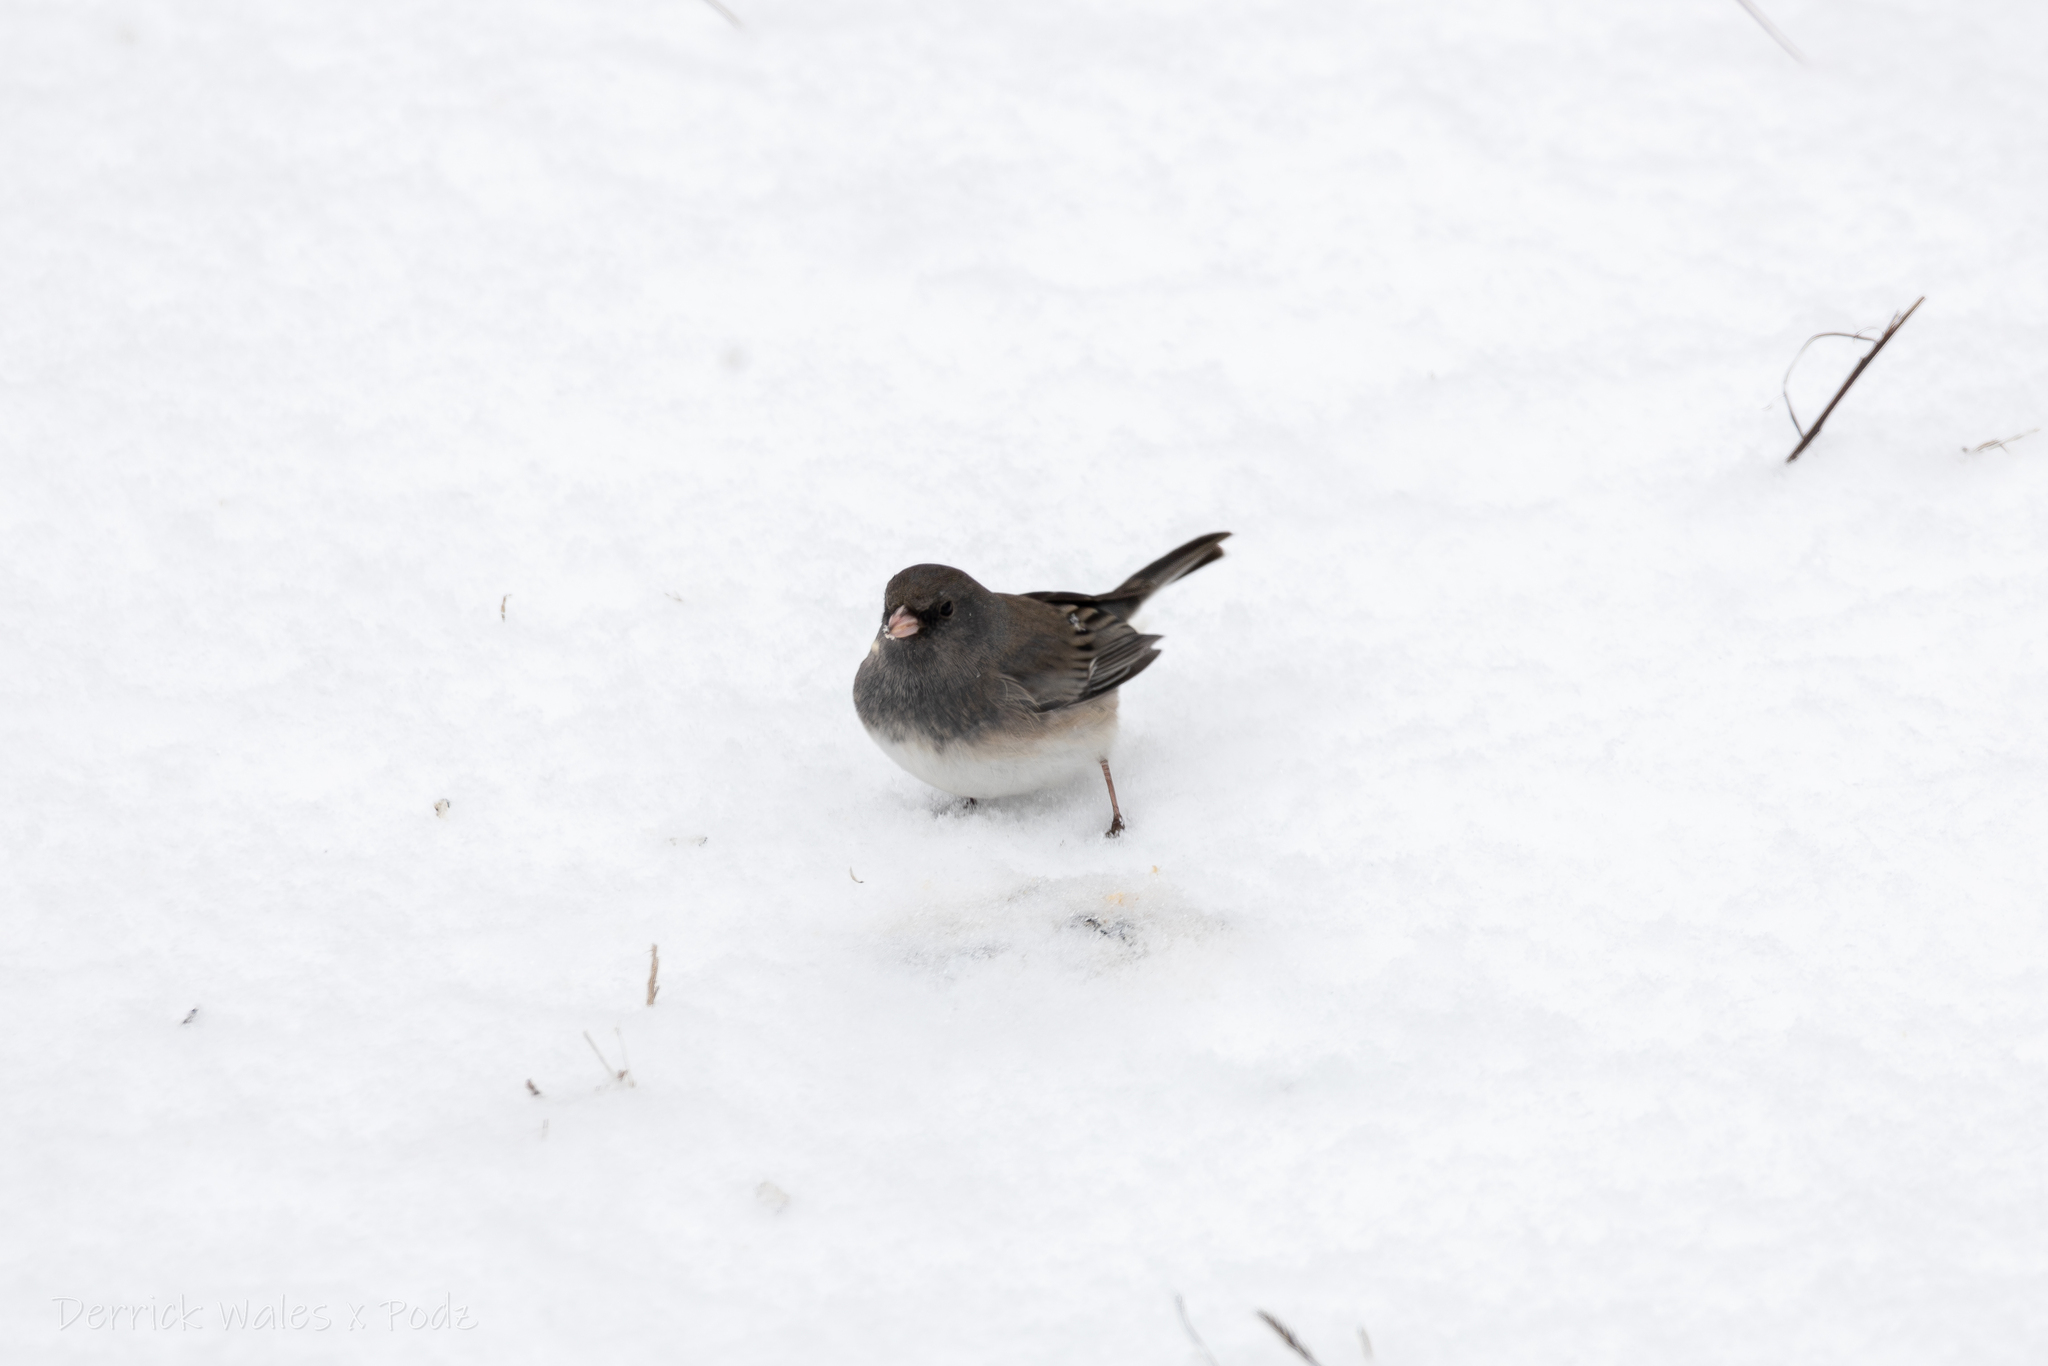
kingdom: Animalia
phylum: Chordata
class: Aves
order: Passeriformes
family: Passerellidae
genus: Junco
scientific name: Junco hyemalis
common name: Dark-eyed junco
